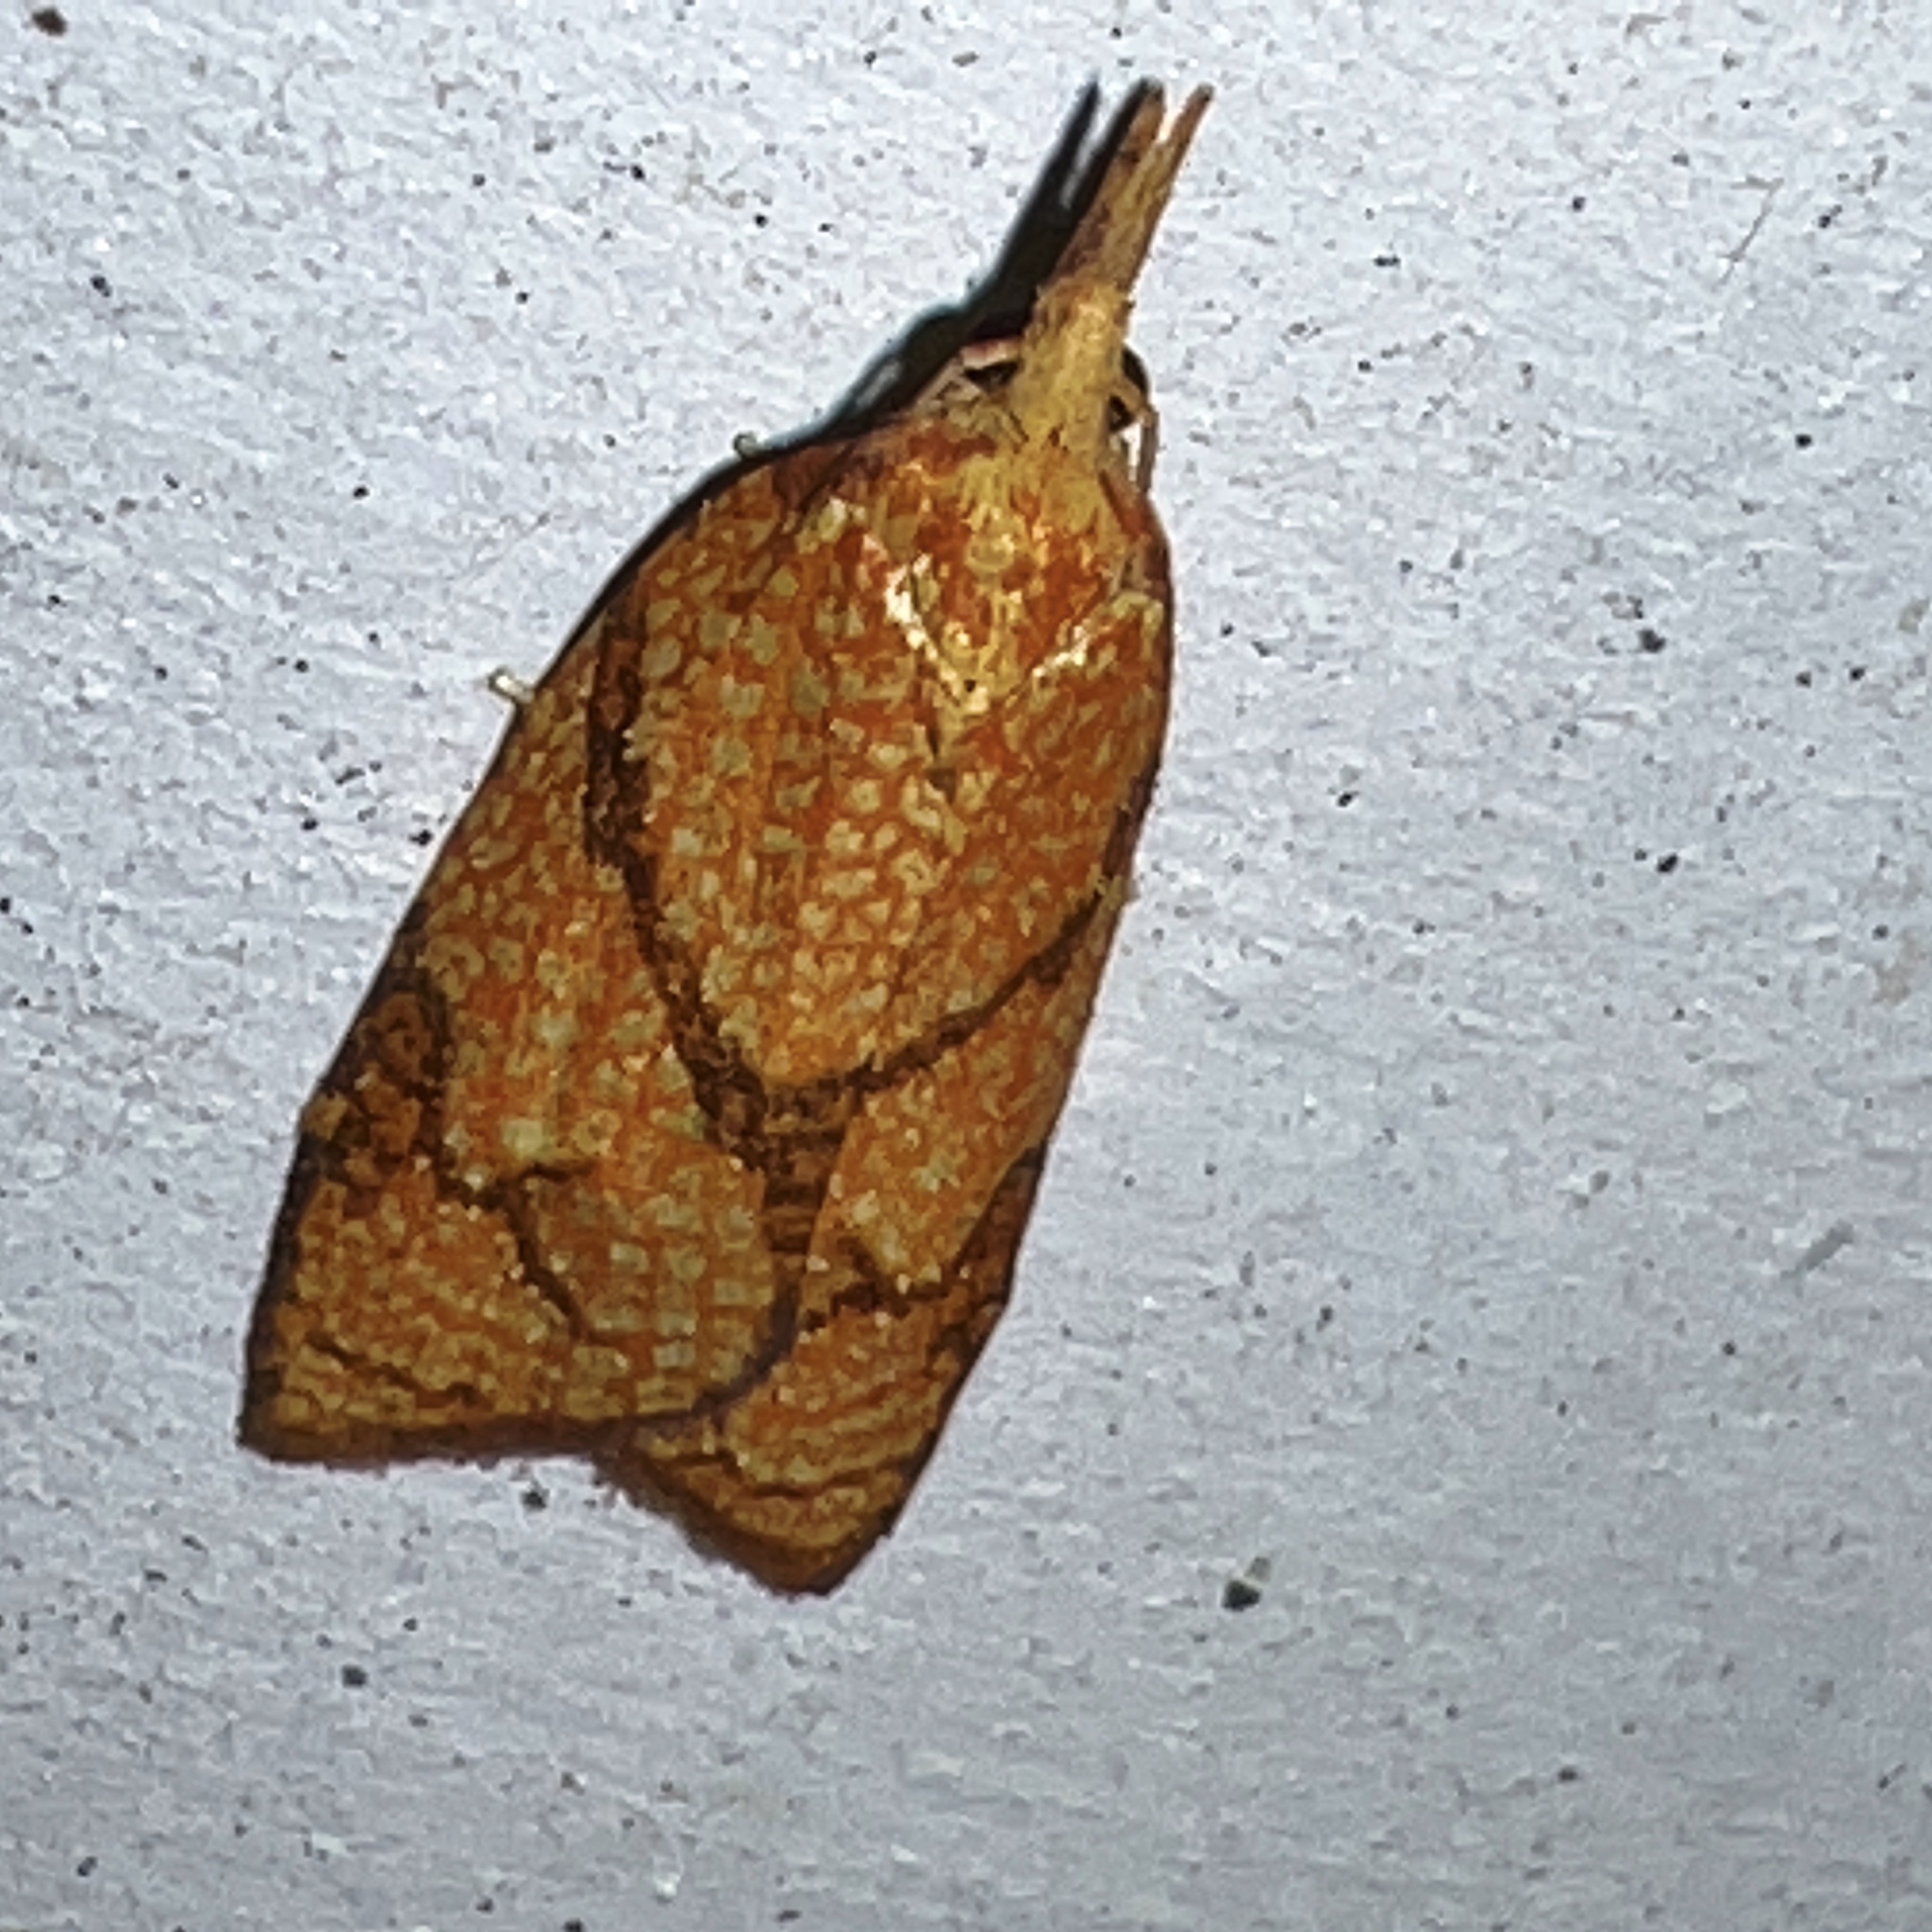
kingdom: Animalia
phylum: Arthropoda
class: Insecta
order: Lepidoptera
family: Tortricidae
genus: Cenopis
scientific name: Cenopis reticulatana
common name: Reticulated fruitworm moth
